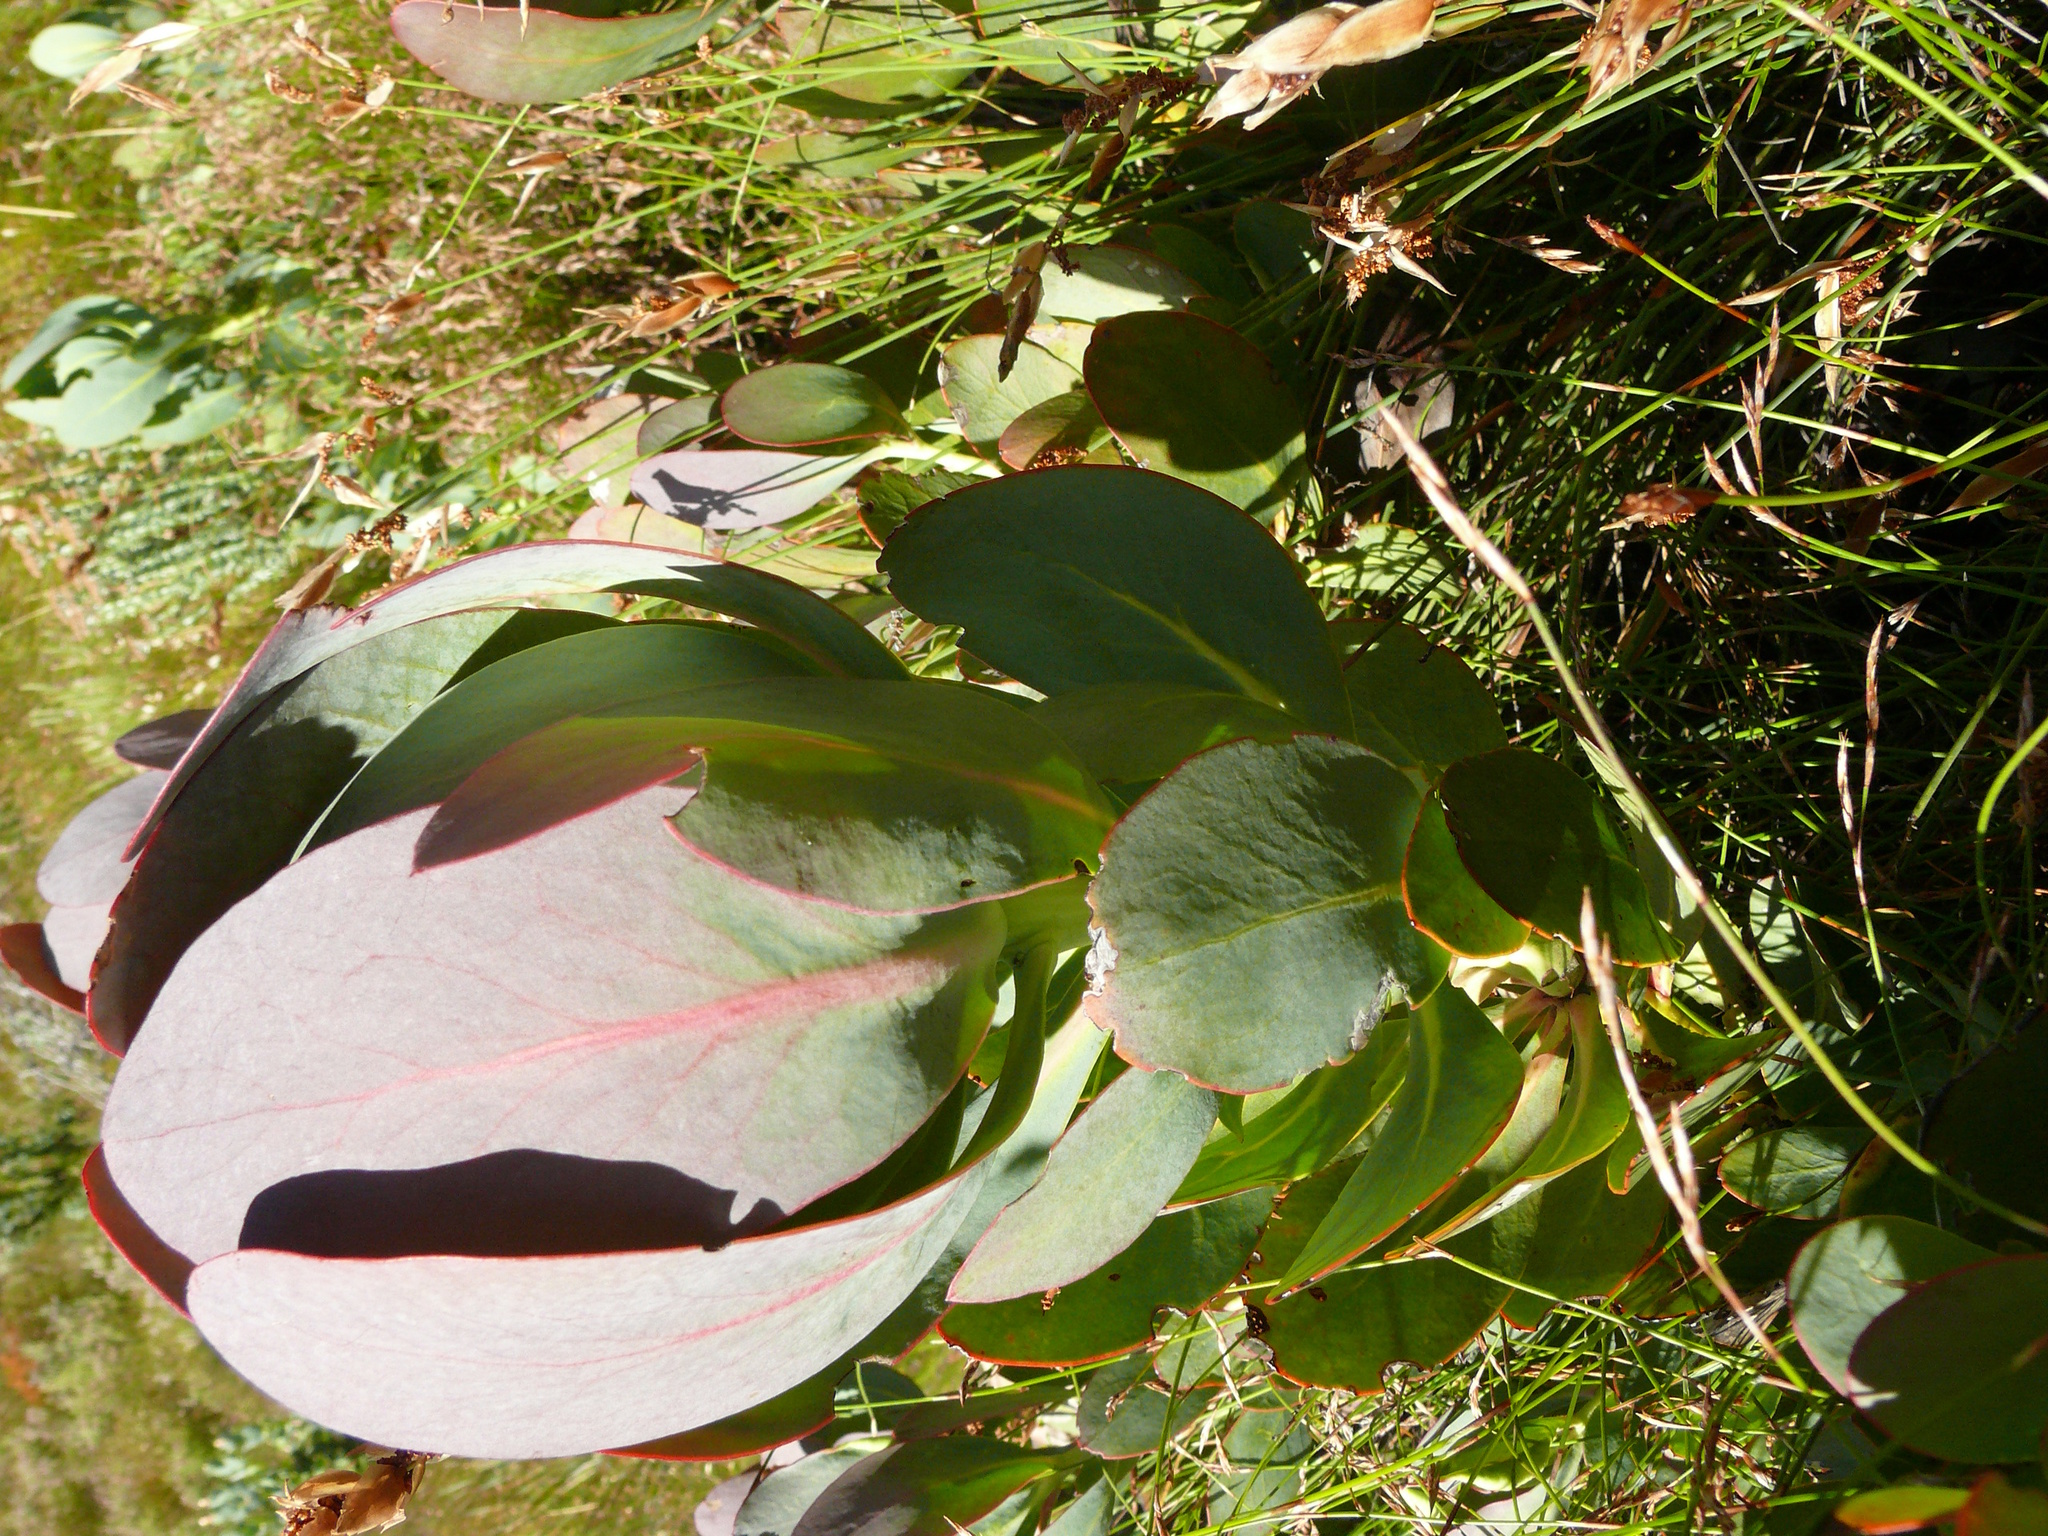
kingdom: Plantae
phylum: Tracheophyta
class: Magnoliopsida
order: Proteales
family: Proteaceae
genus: Protea
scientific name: Protea recondita
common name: Hidden sugarbush
